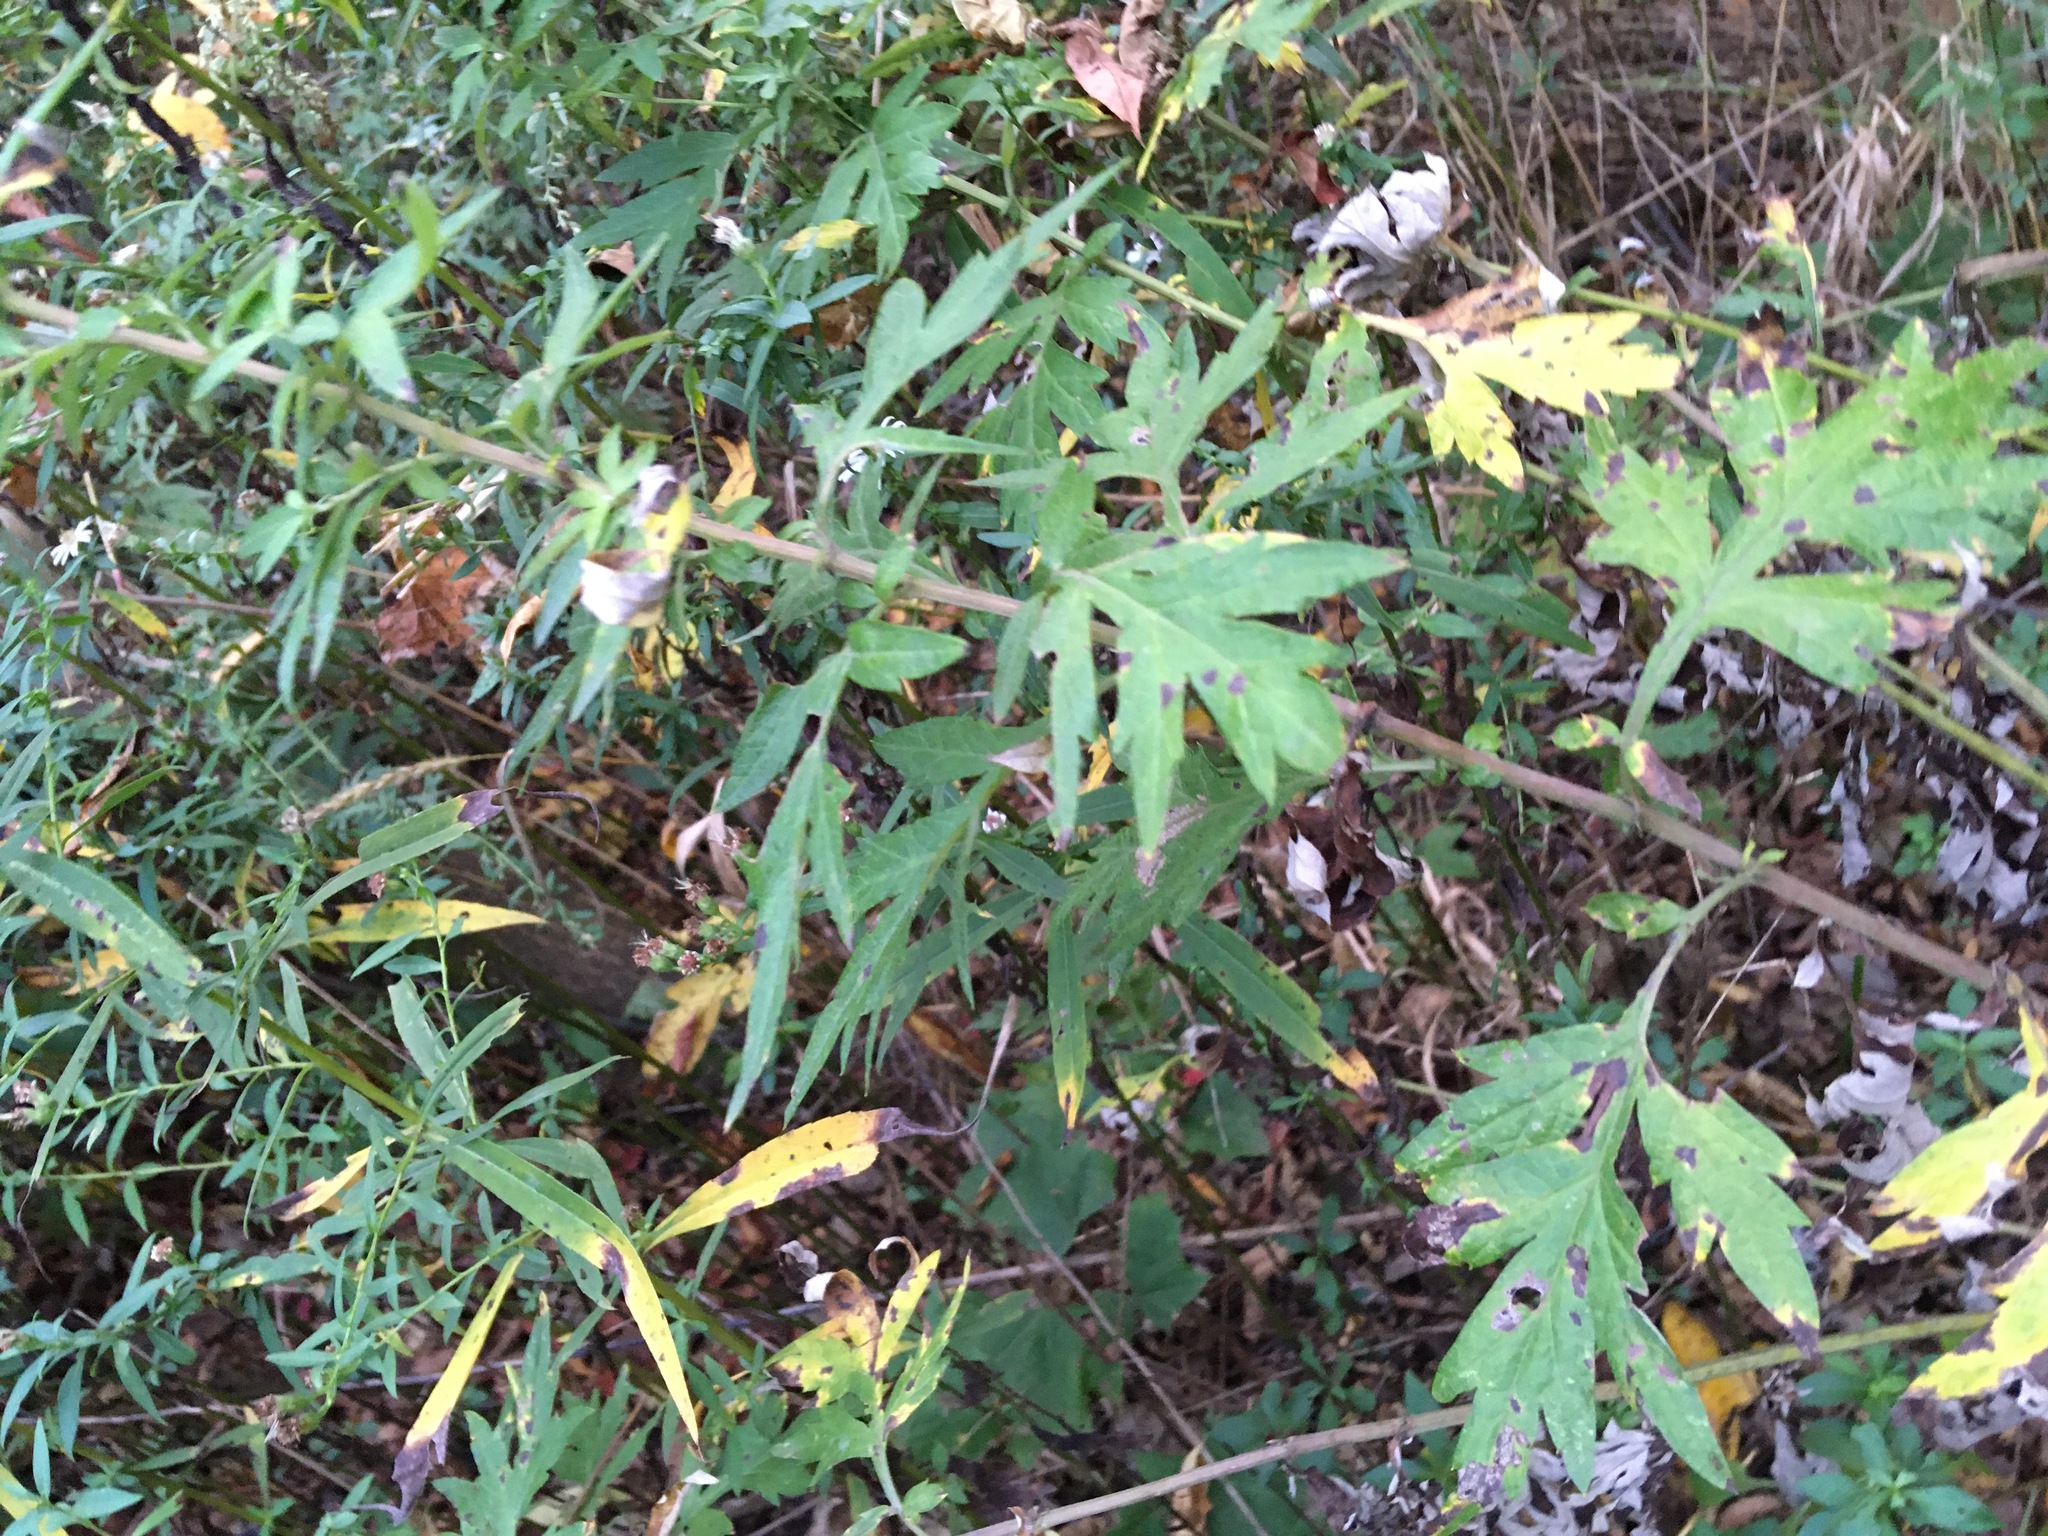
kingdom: Plantae
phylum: Tracheophyta
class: Magnoliopsida
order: Asterales
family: Asteraceae
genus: Artemisia
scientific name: Artemisia vulgaris
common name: Mugwort
